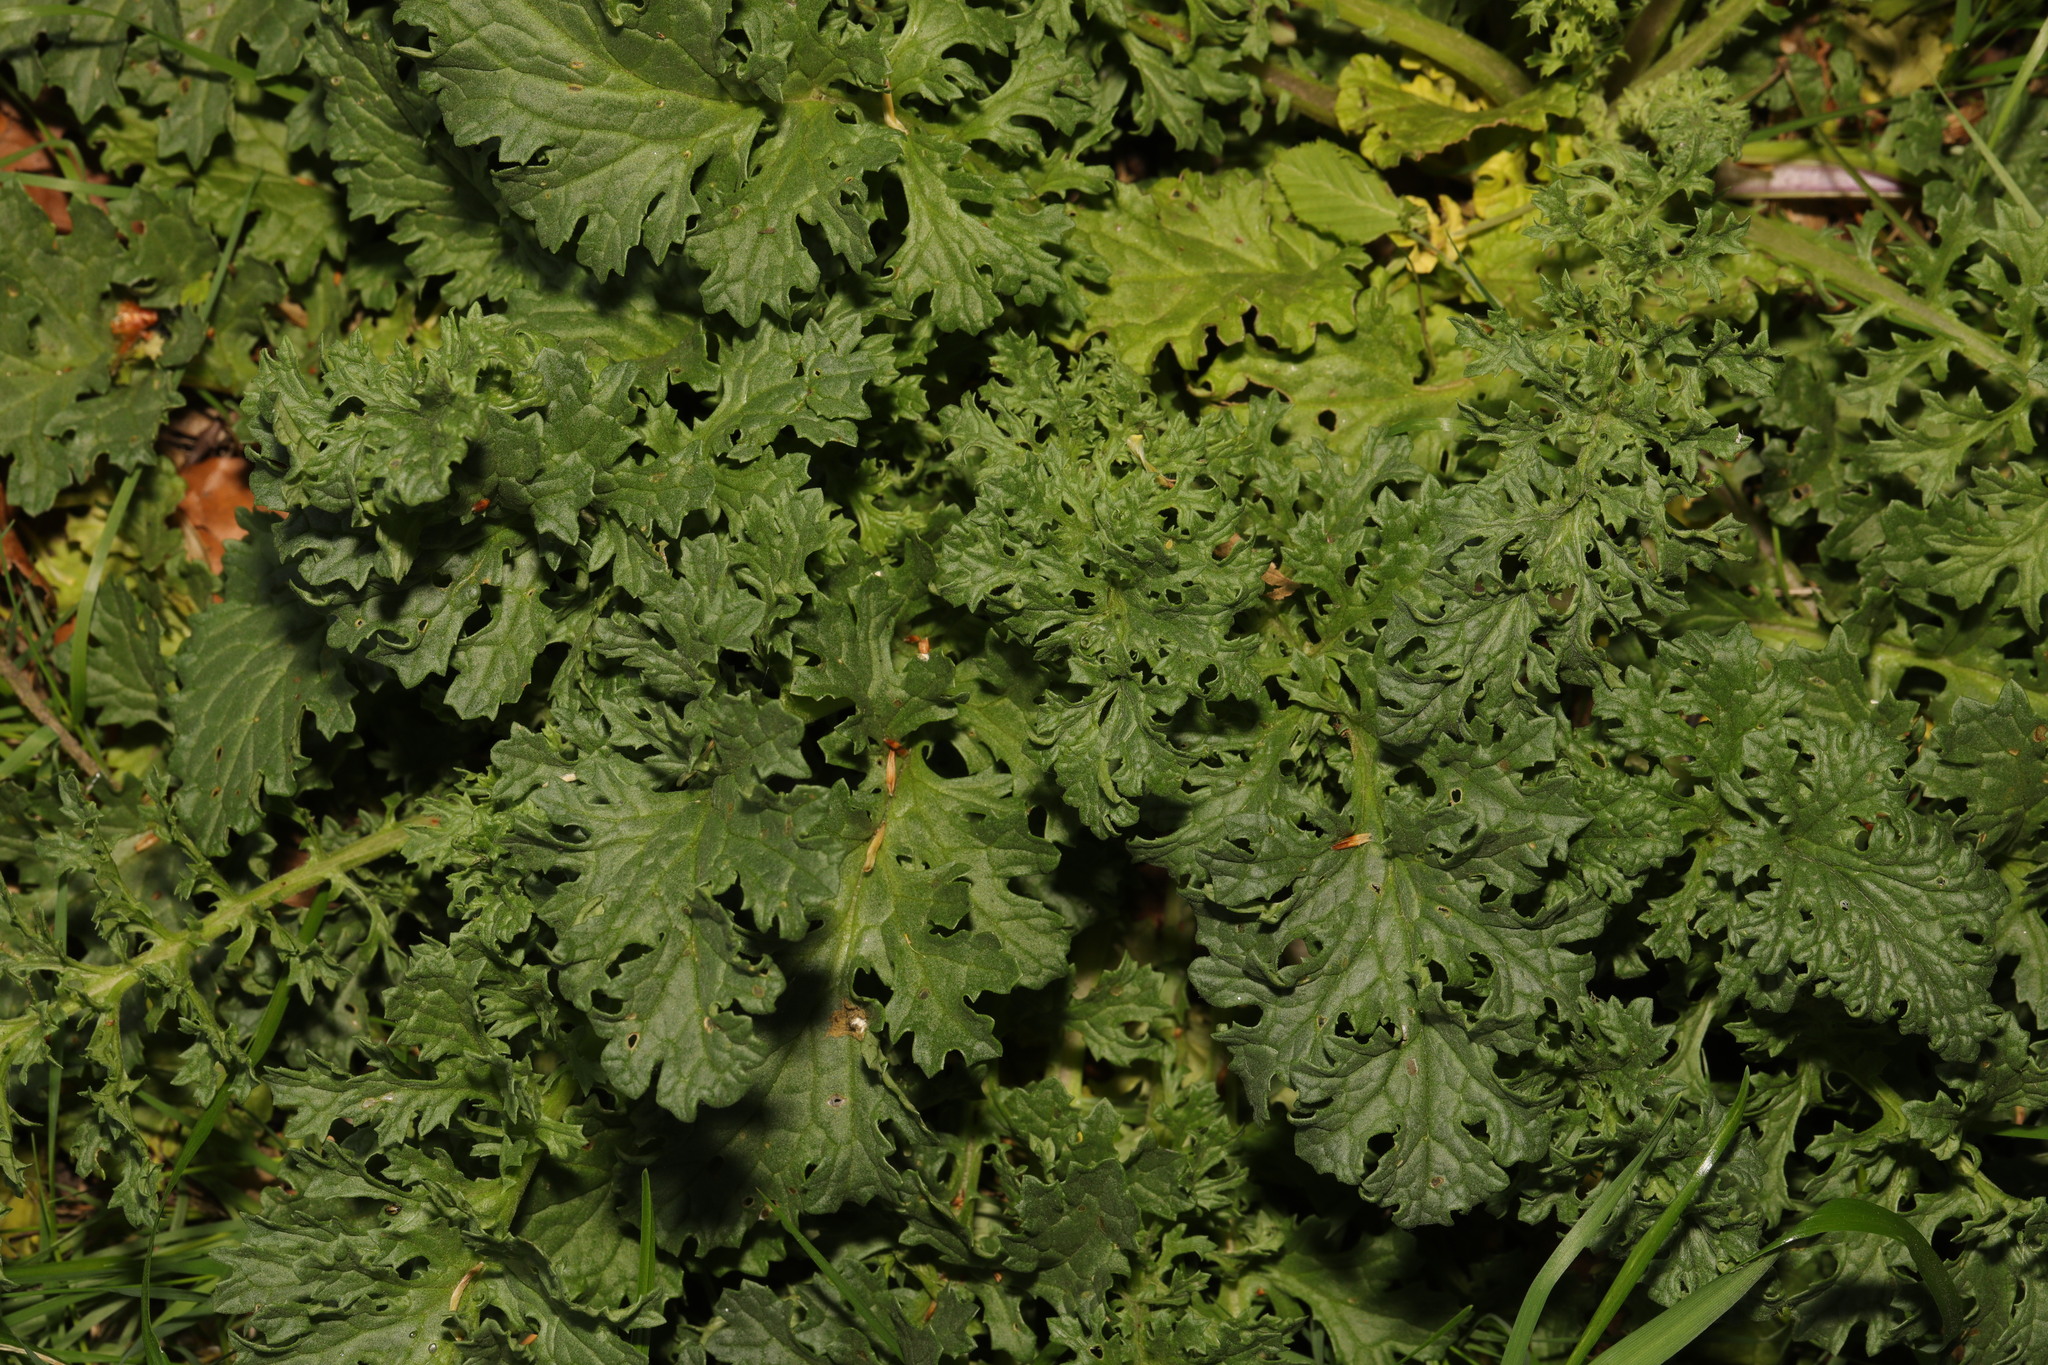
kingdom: Plantae
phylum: Tracheophyta
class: Magnoliopsida
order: Asterales
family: Asteraceae
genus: Jacobaea
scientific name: Jacobaea vulgaris
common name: Stinking willie
